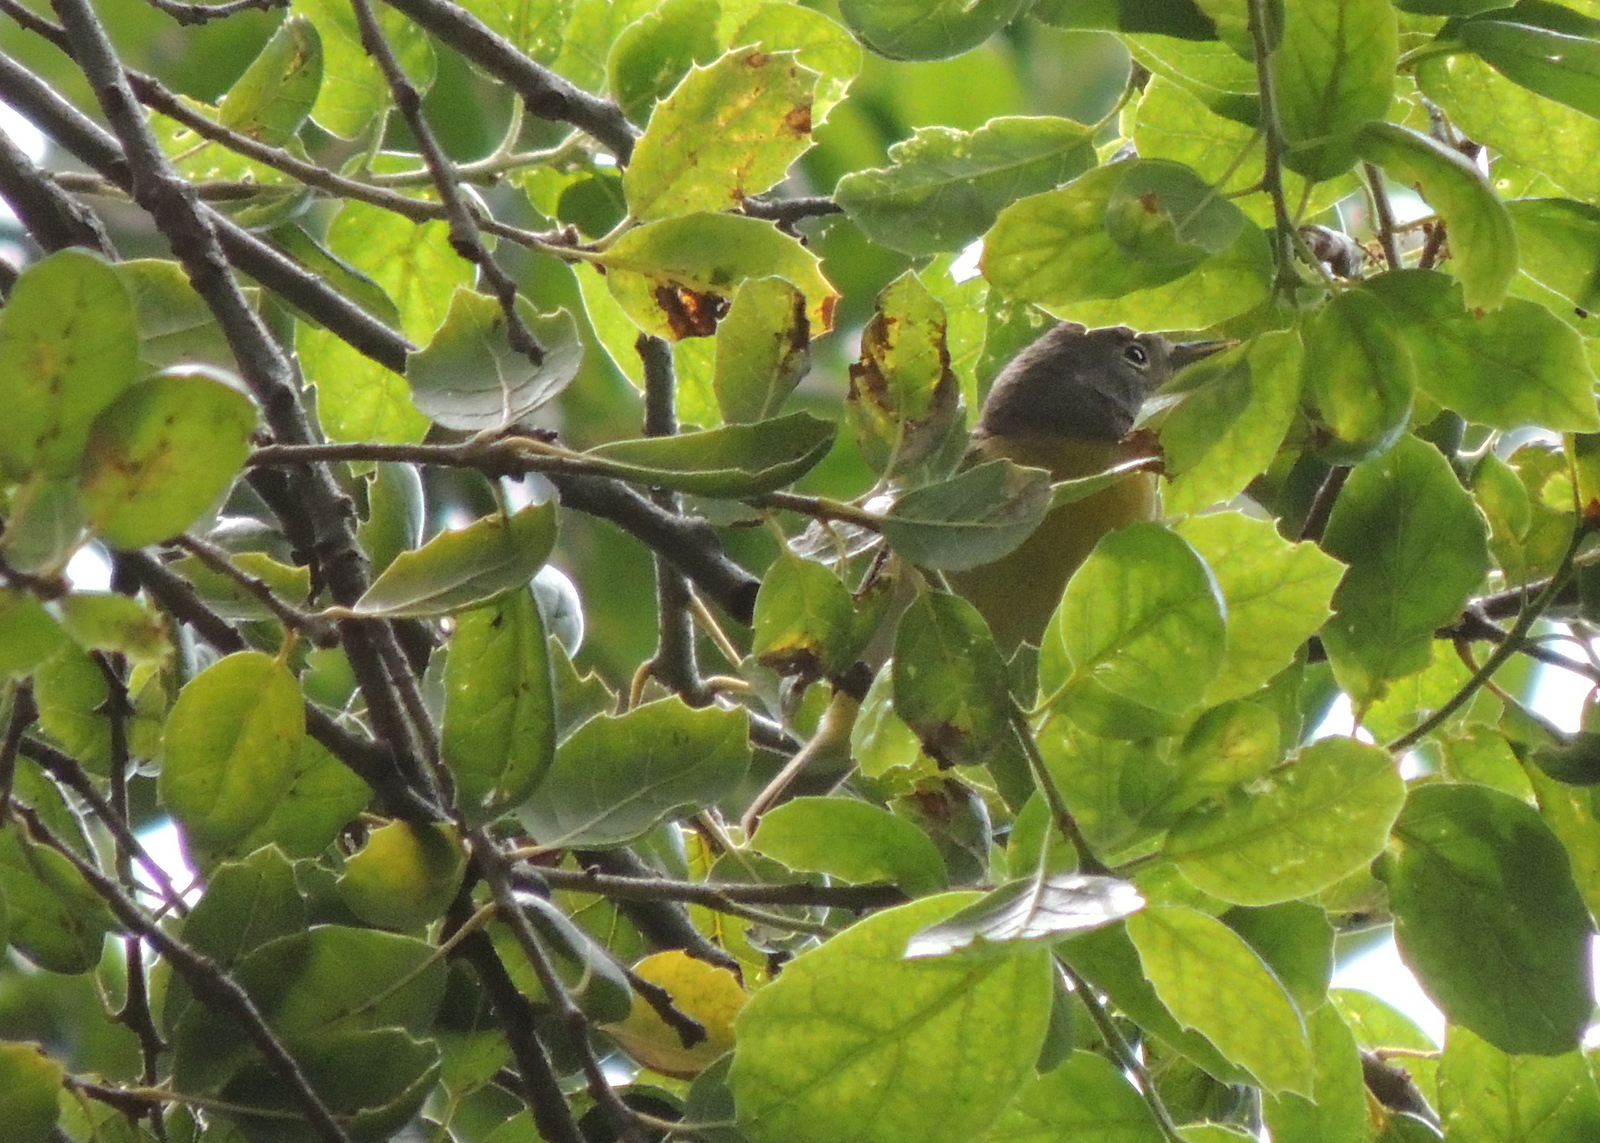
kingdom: Animalia
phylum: Chordata
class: Aves
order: Passeriformes
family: Parulidae
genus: Leiothlypis
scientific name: Leiothlypis ruficapilla
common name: Nashville warbler
